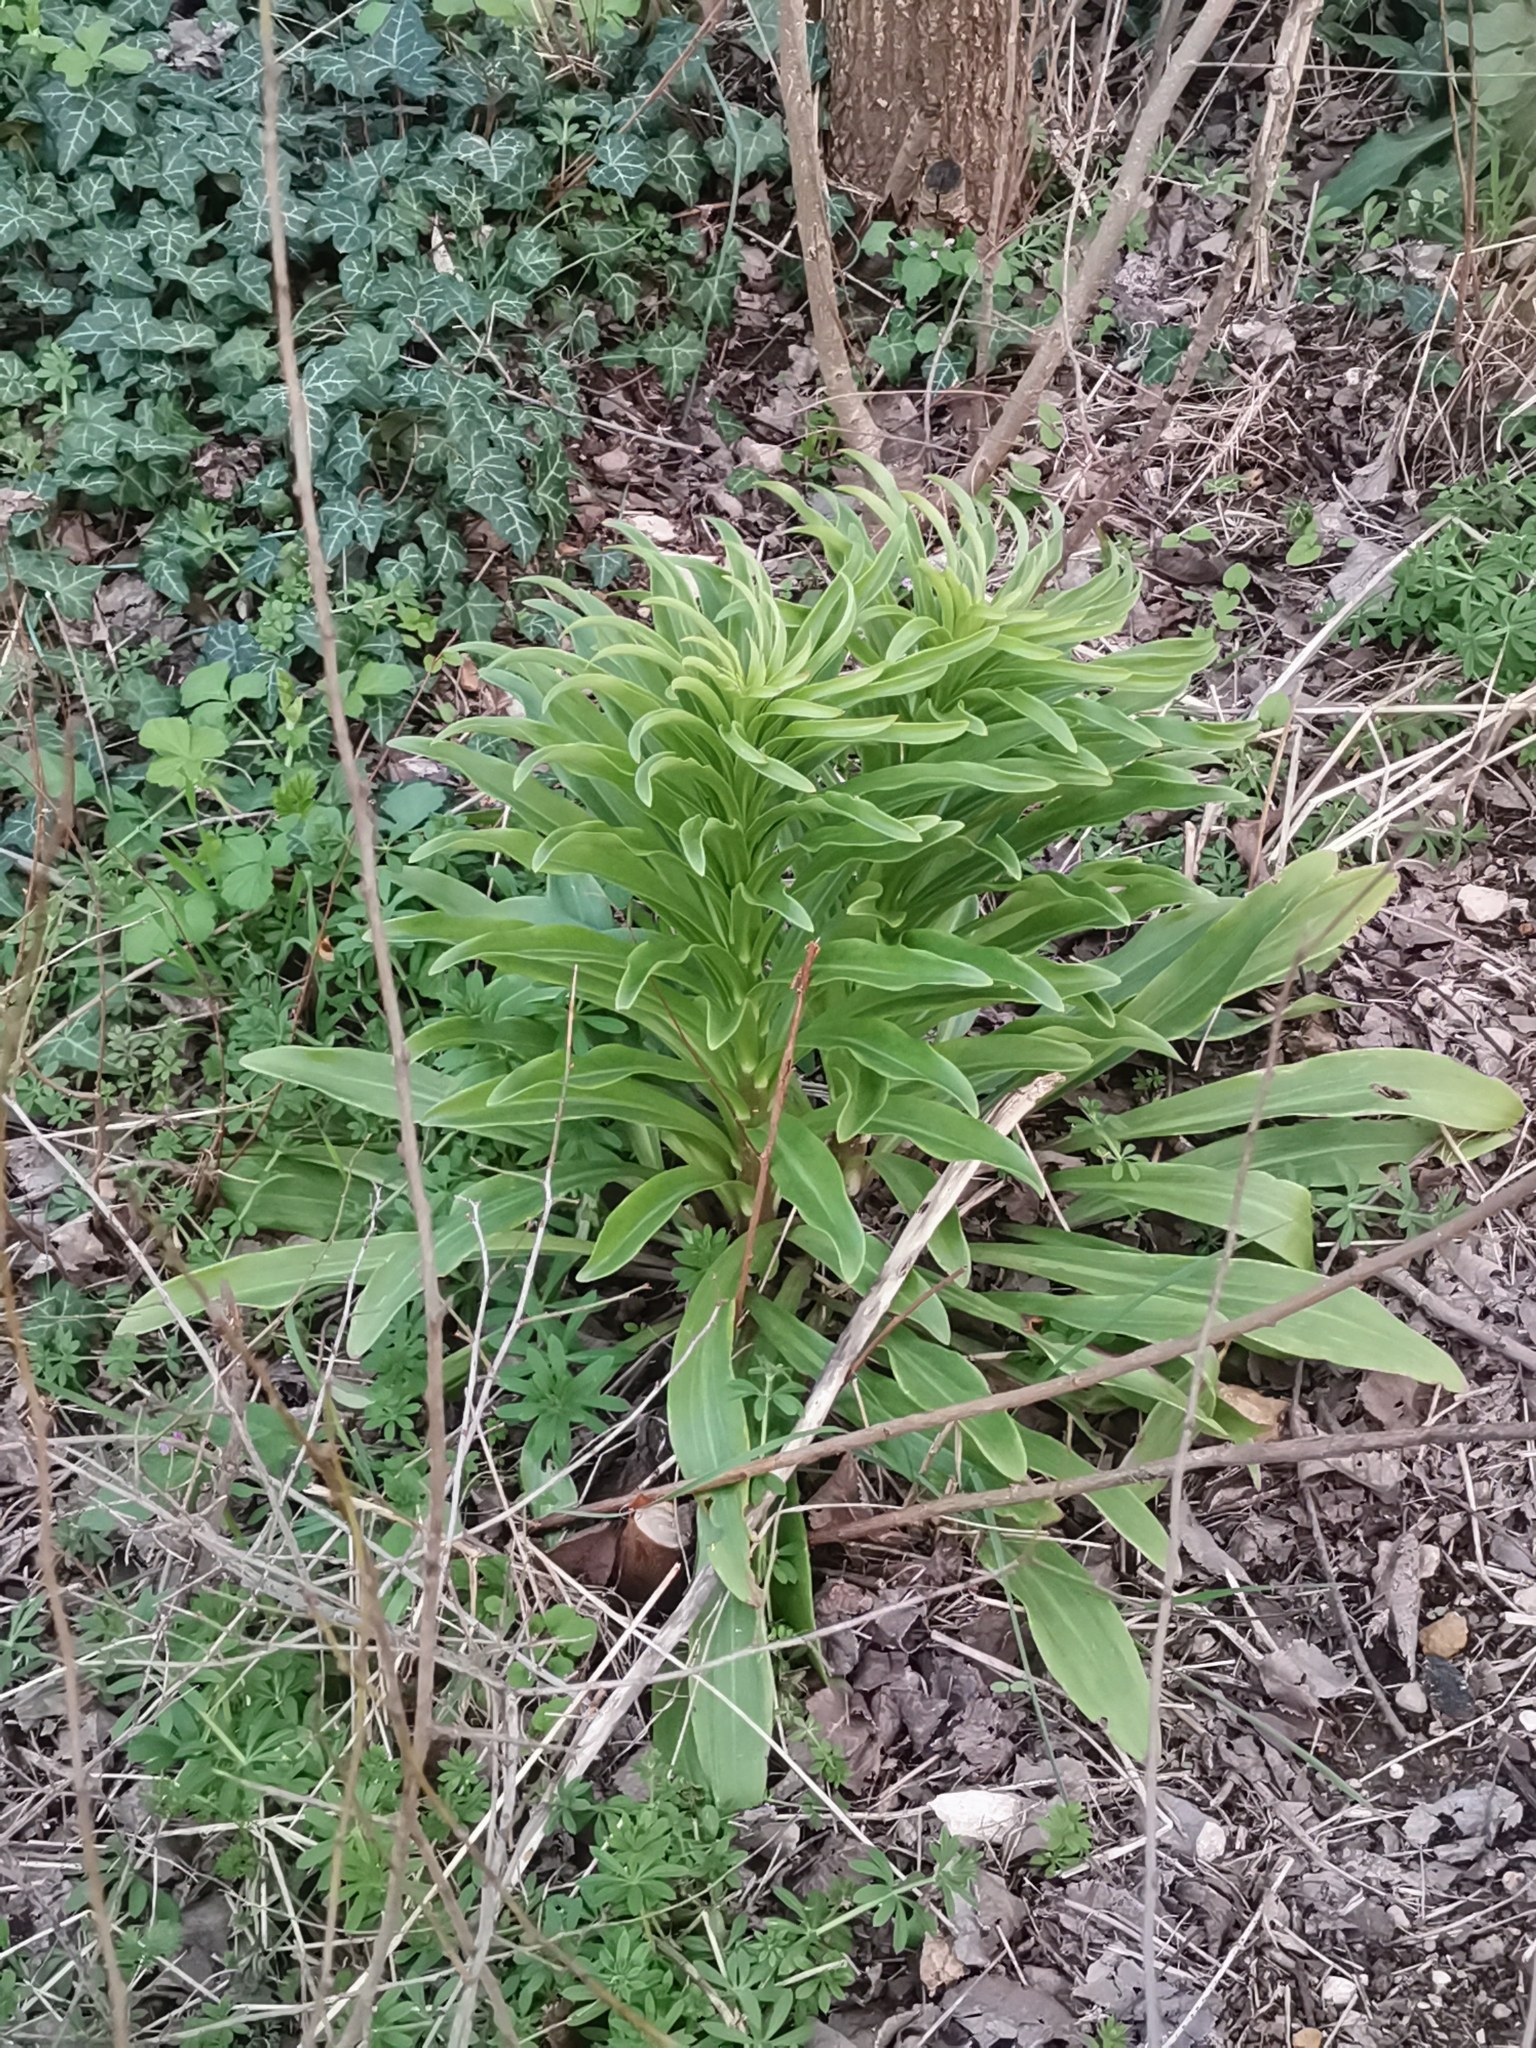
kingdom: Plantae
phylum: Tracheophyta
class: Liliopsida
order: Liliales
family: Liliaceae
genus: Lilium
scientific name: Lilium candidum
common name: Madonna lily
